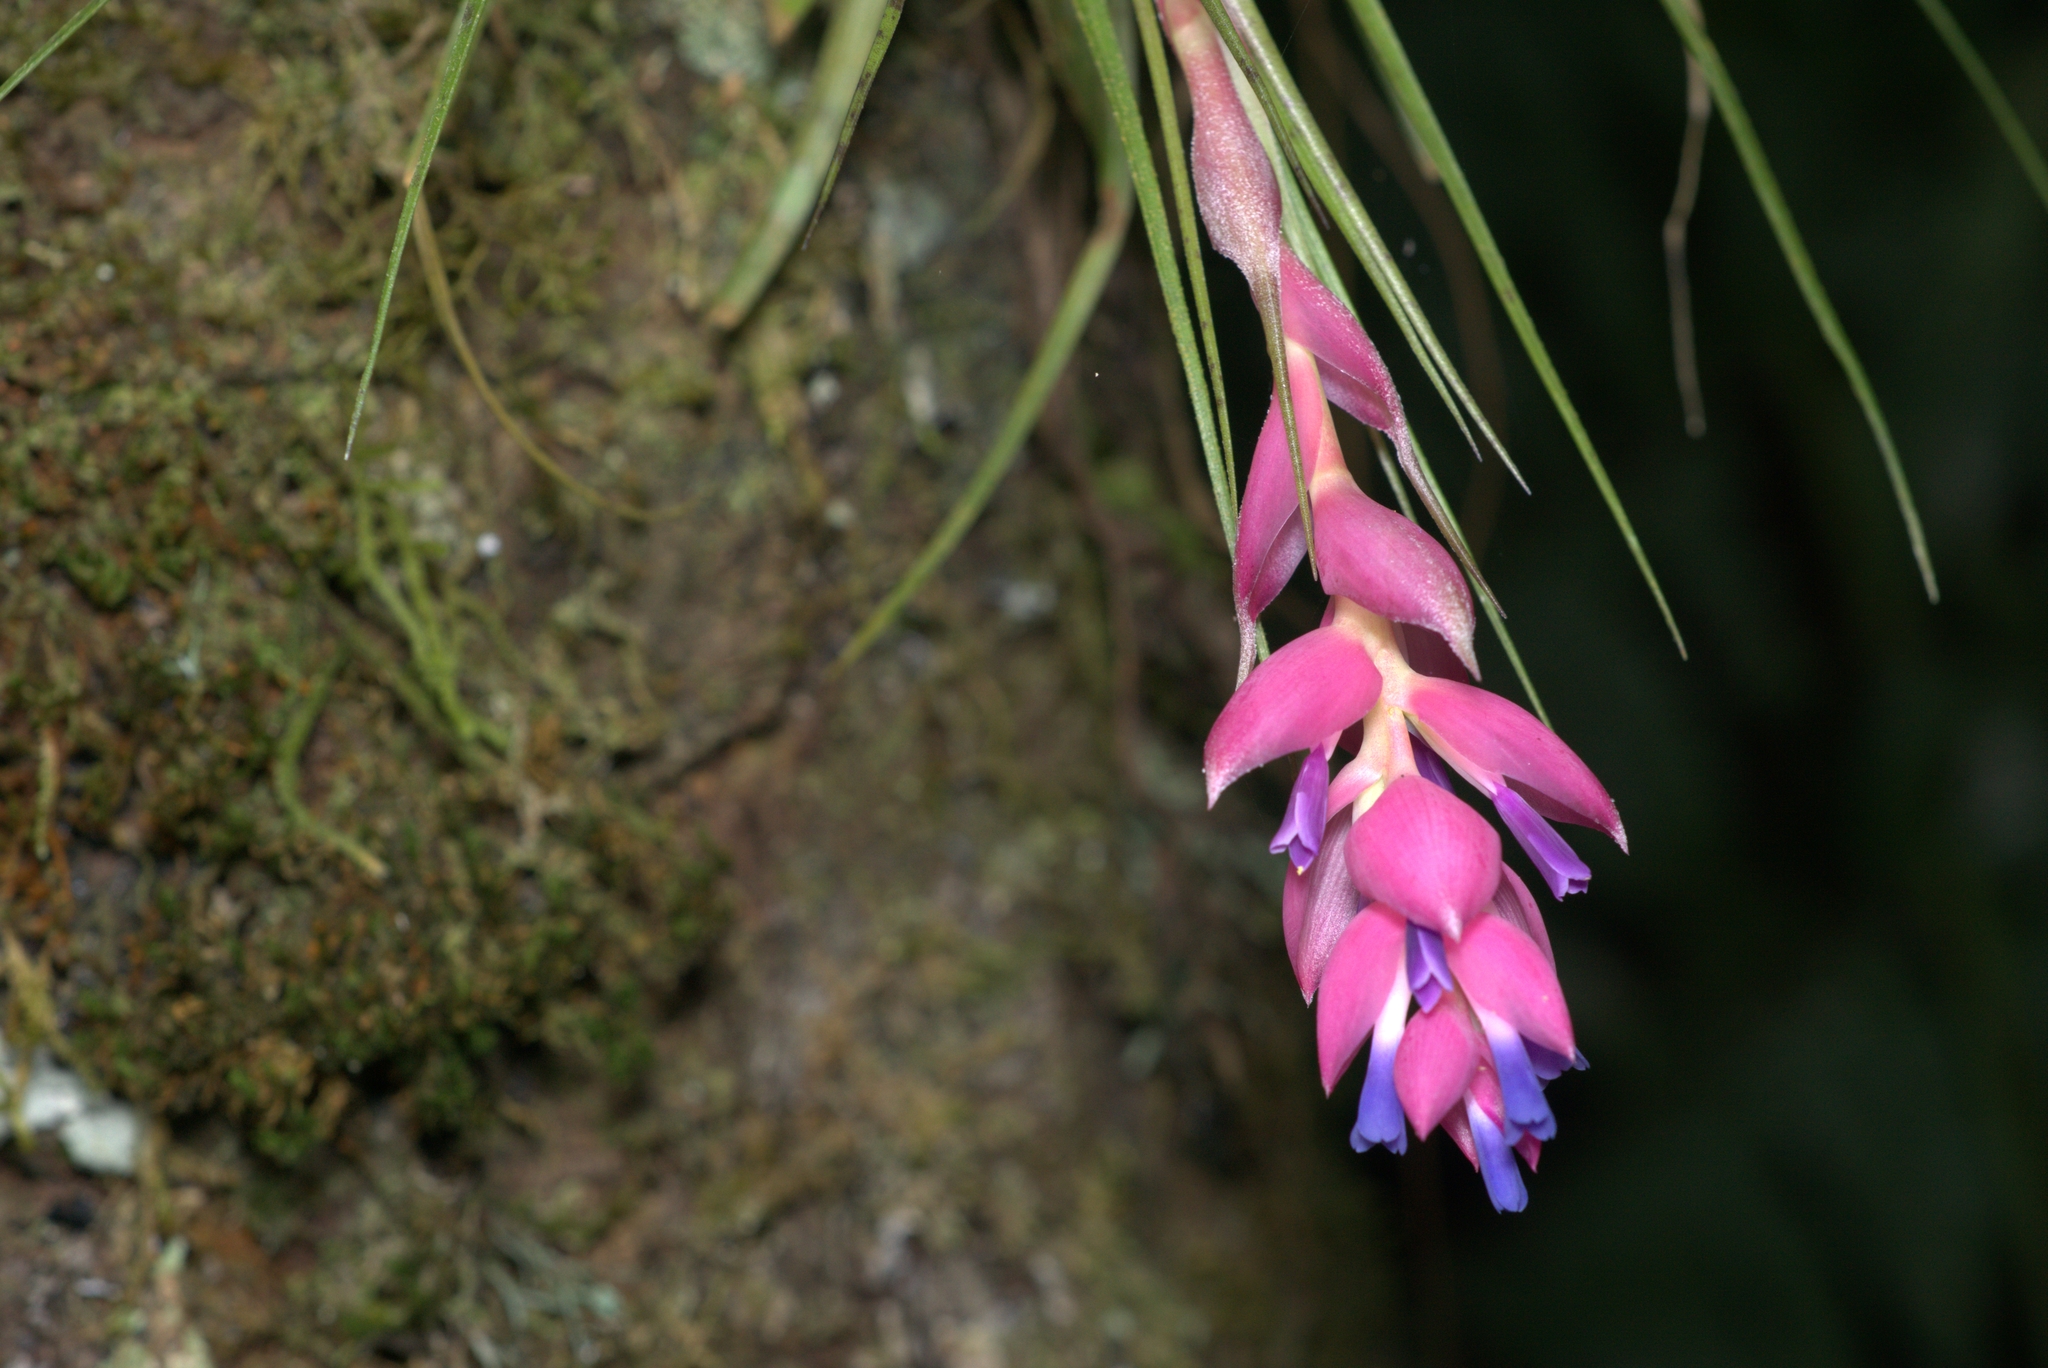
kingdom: Plantae
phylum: Tracheophyta
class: Liliopsida
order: Poales
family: Bromeliaceae
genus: Tillandsia
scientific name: Tillandsia stricta
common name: Airplant
